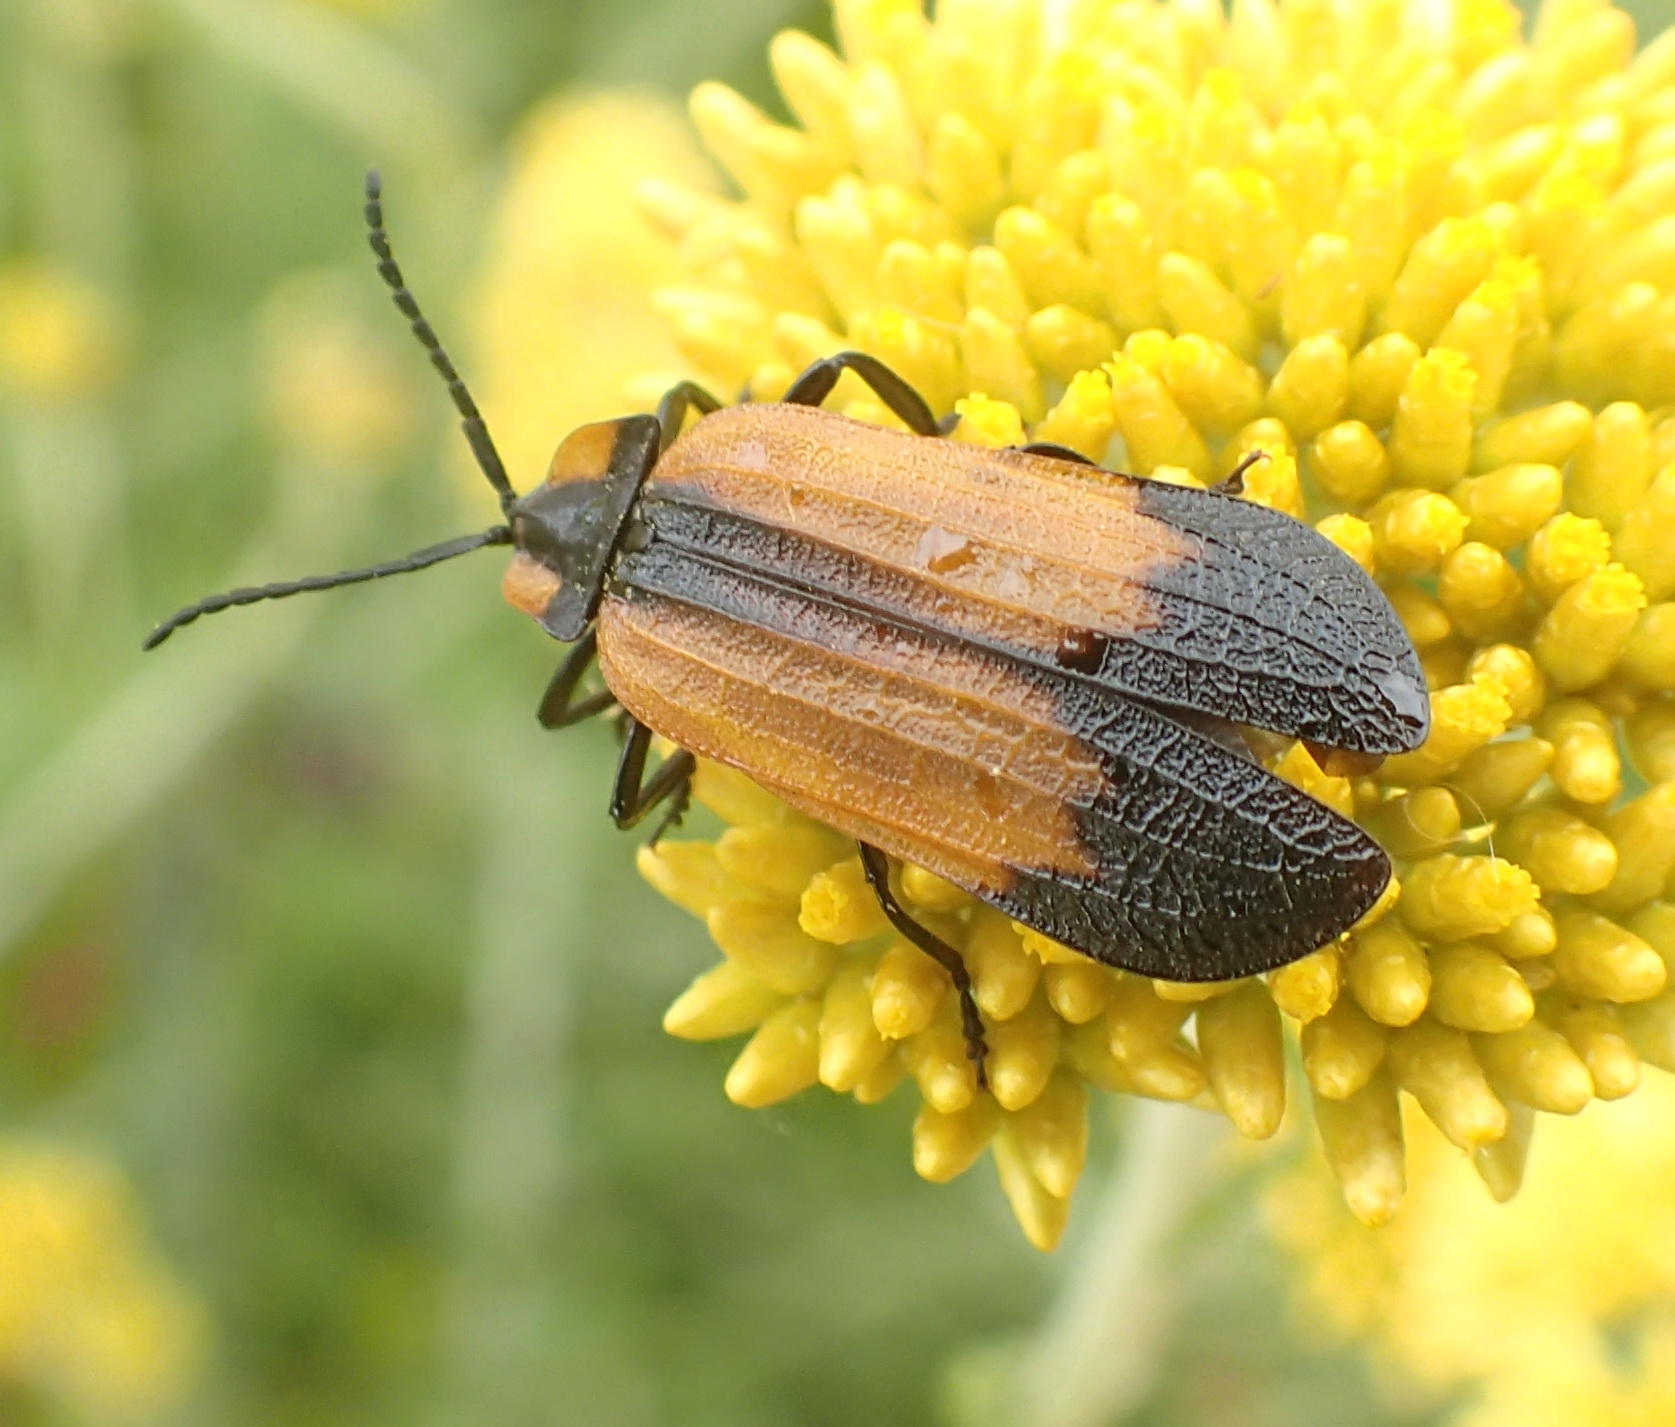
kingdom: Animalia
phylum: Arthropoda
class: Insecta
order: Coleoptera
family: Lycidae
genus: Lycus
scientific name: Lycus
